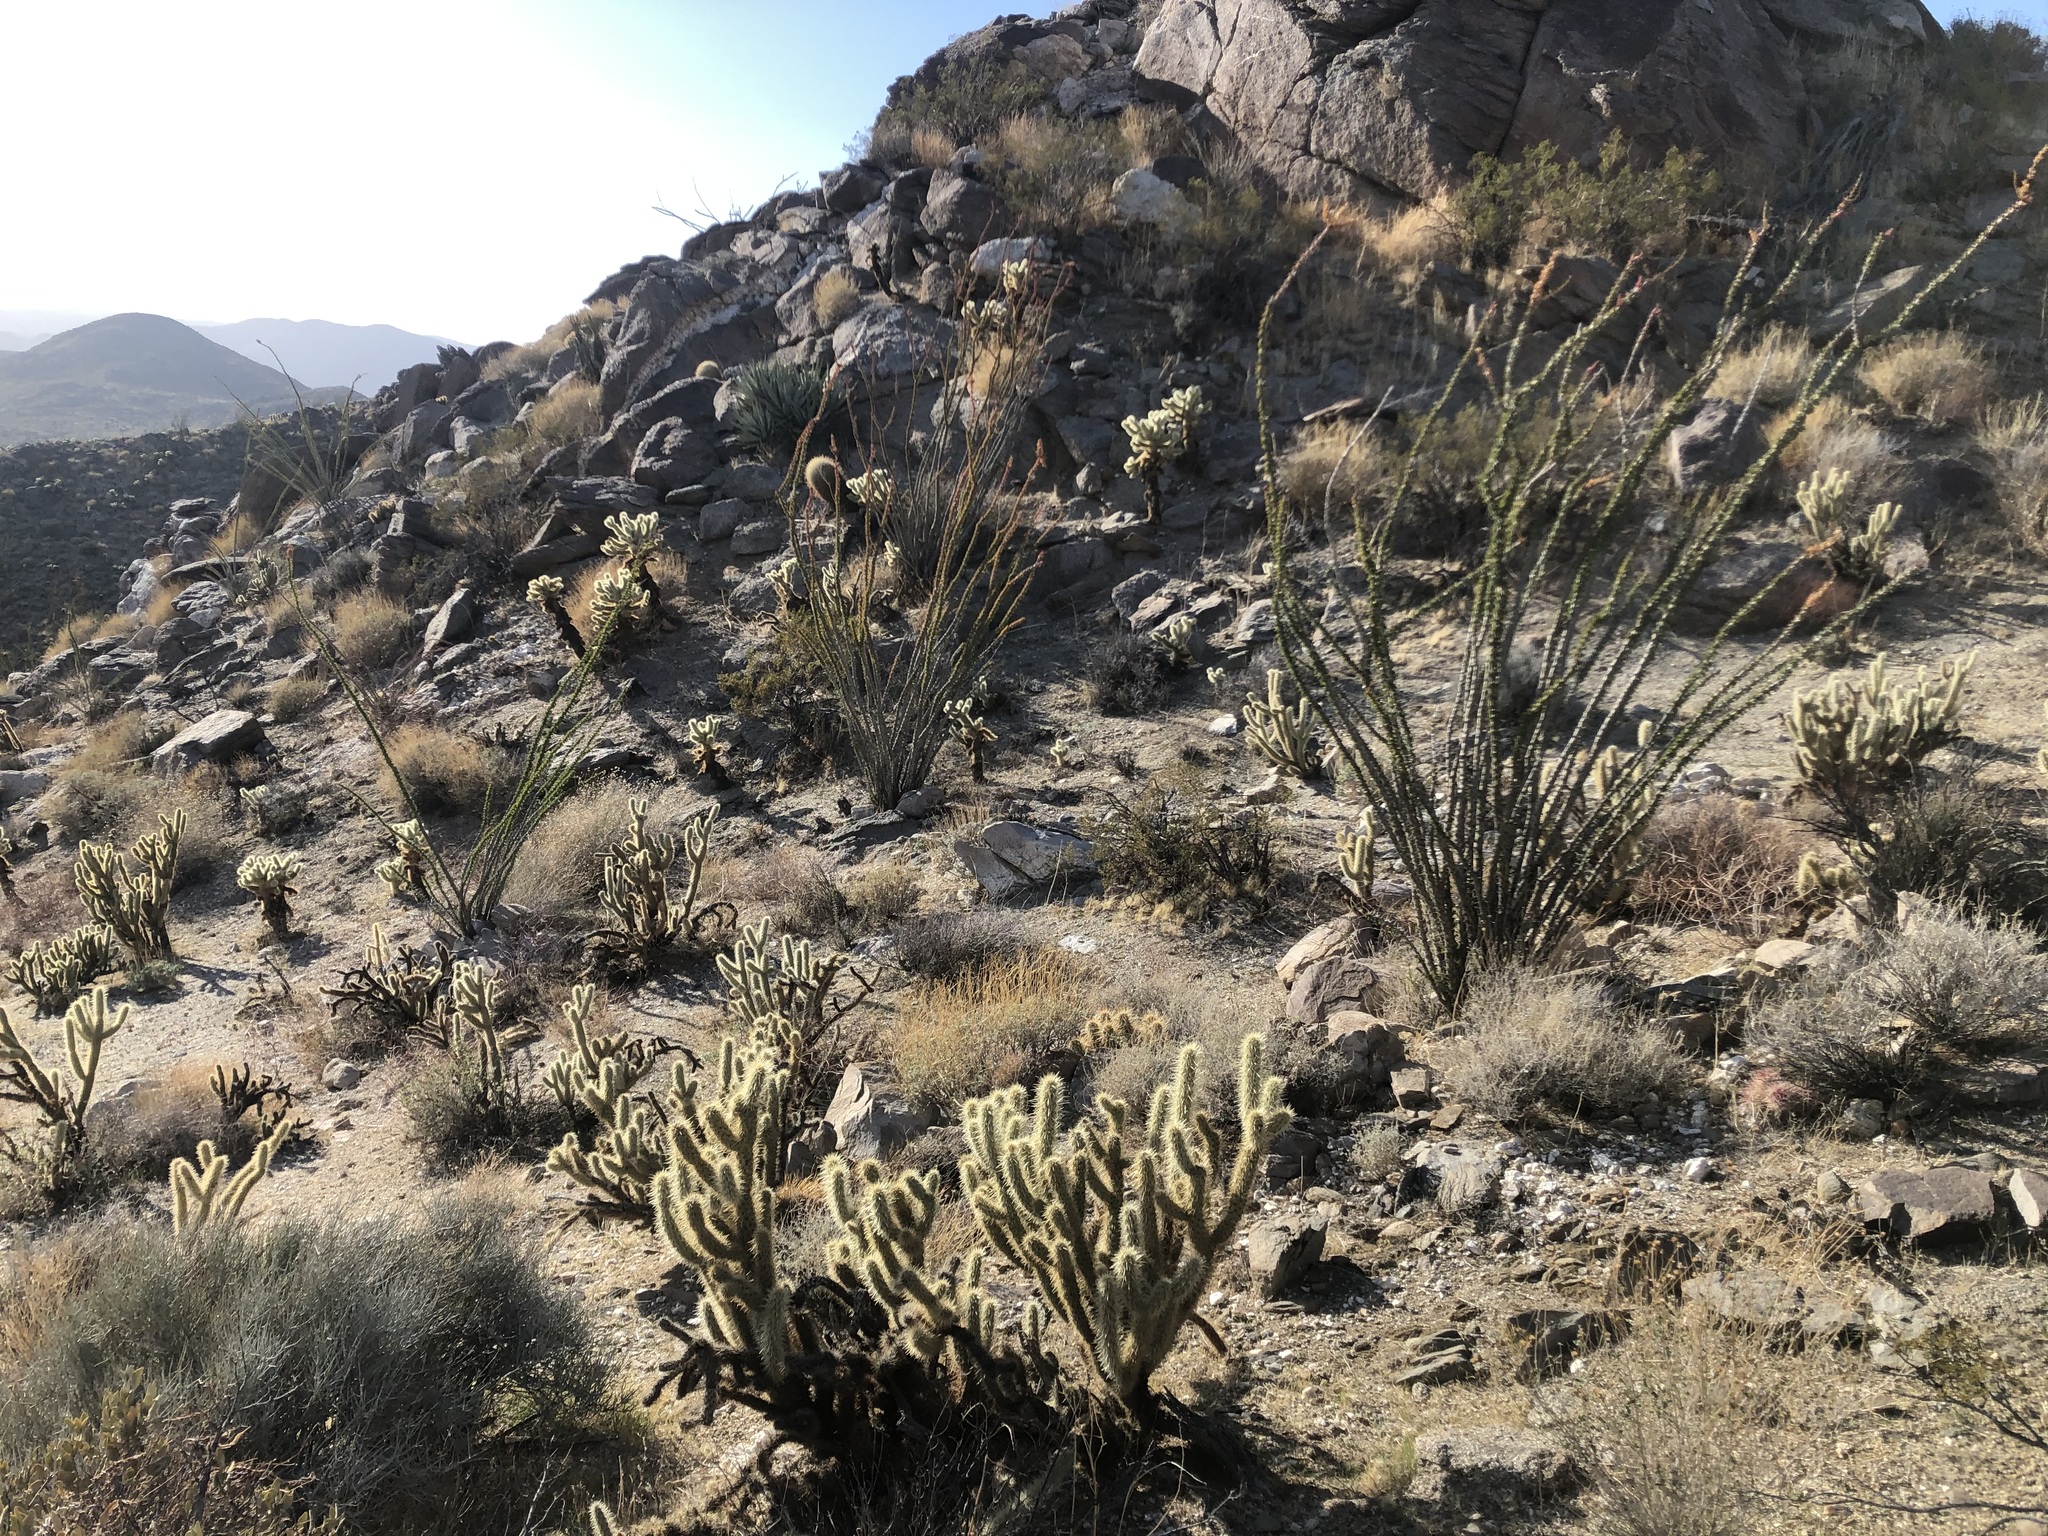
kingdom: Plantae
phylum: Tracheophyta
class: Magnoliopsida
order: Ericales
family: Fouquieriaceae
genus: Fouquieria
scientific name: Fouquieria splendens
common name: Vine-cactus
